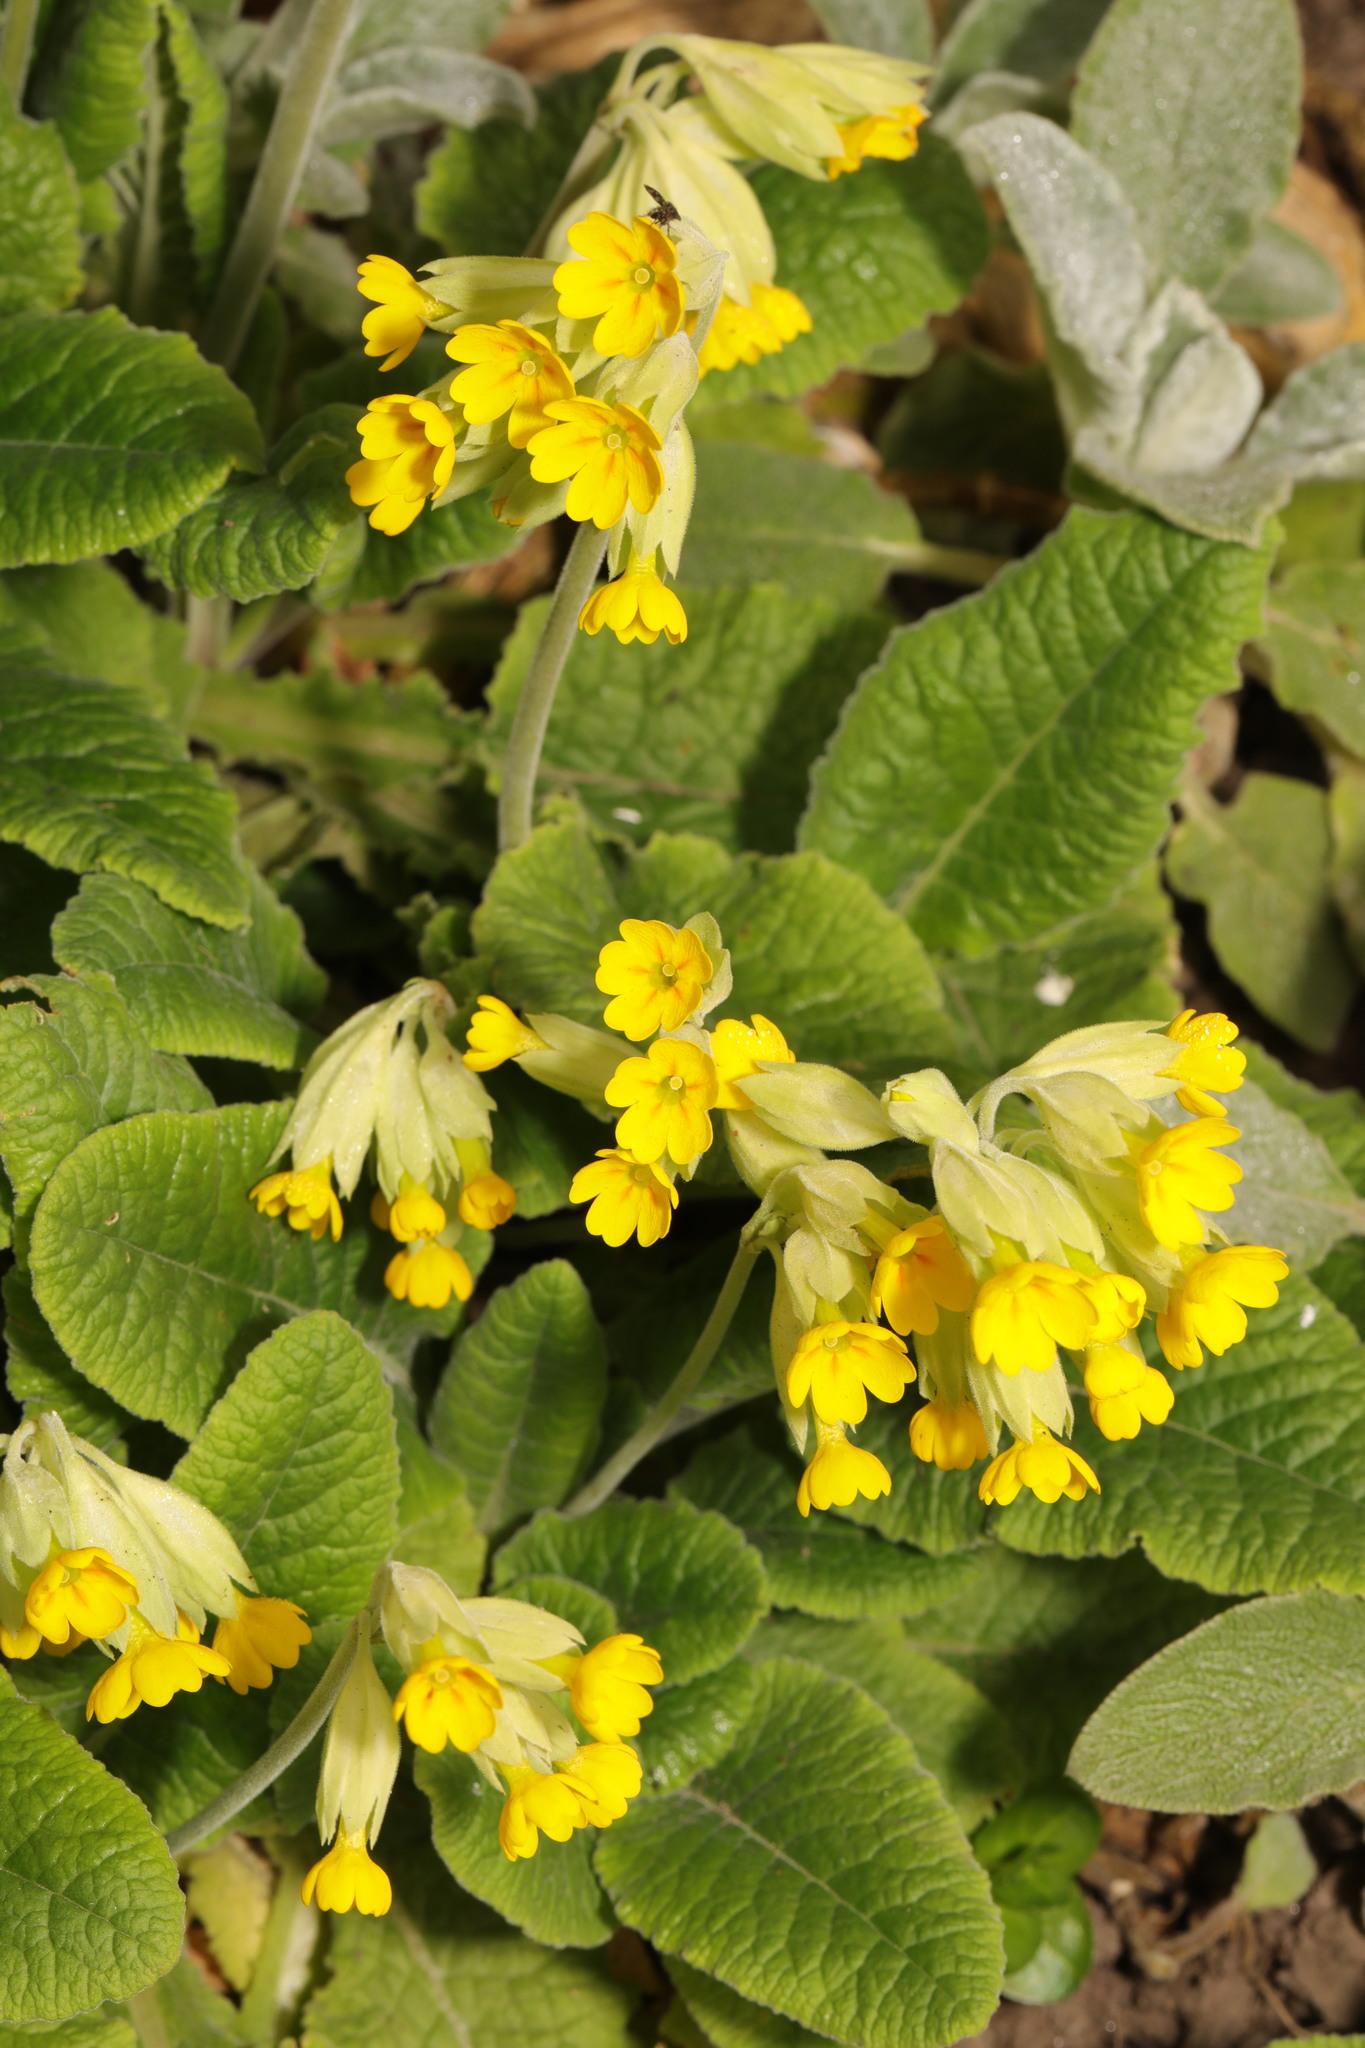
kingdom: Plantae
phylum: Tracheophyta
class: Magnoliopsida
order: Ericales
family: Primulaceae
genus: Primula
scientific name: Primula veris
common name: Cowslip
